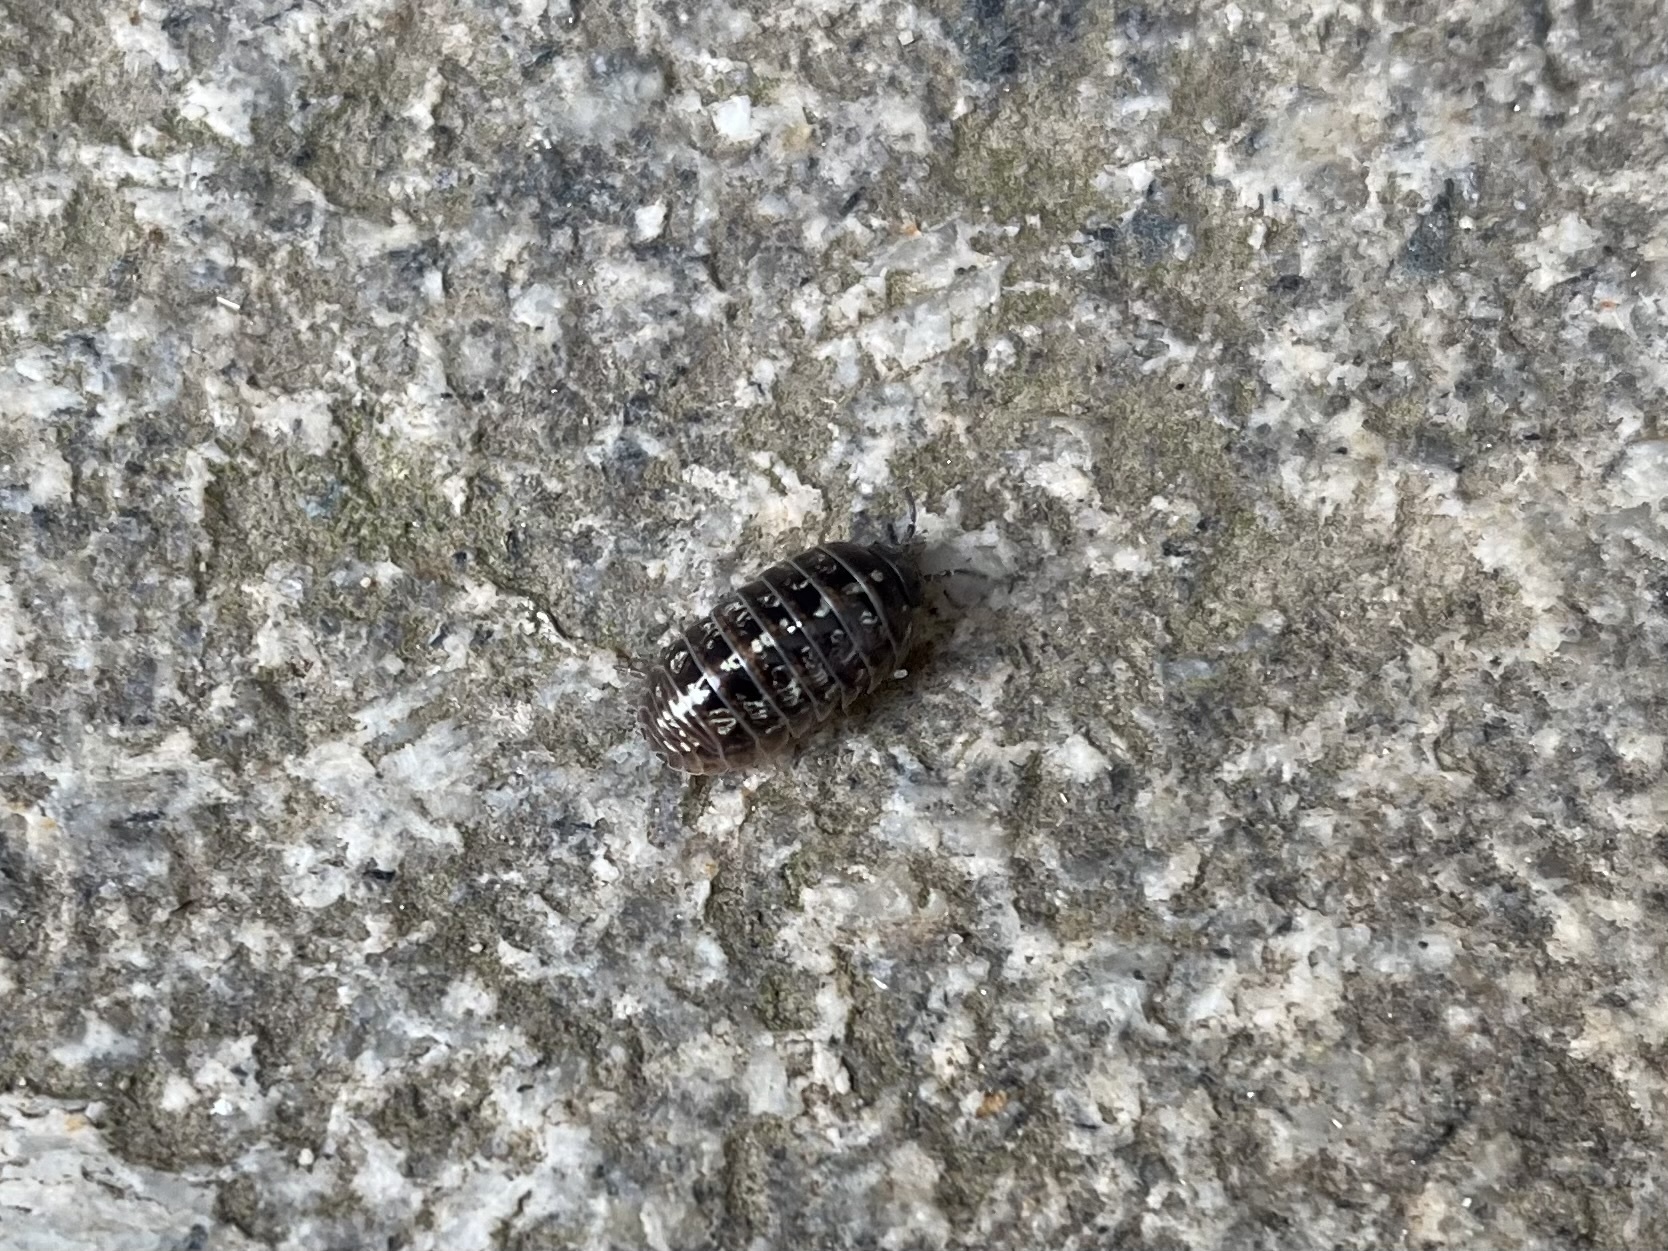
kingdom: Animalia
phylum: Arthropoda
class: Malacostraca
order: Isopoda
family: Armadillidiidae
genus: Armadillidium
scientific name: Armadillidium vulgare
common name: Common pill woodlouse
